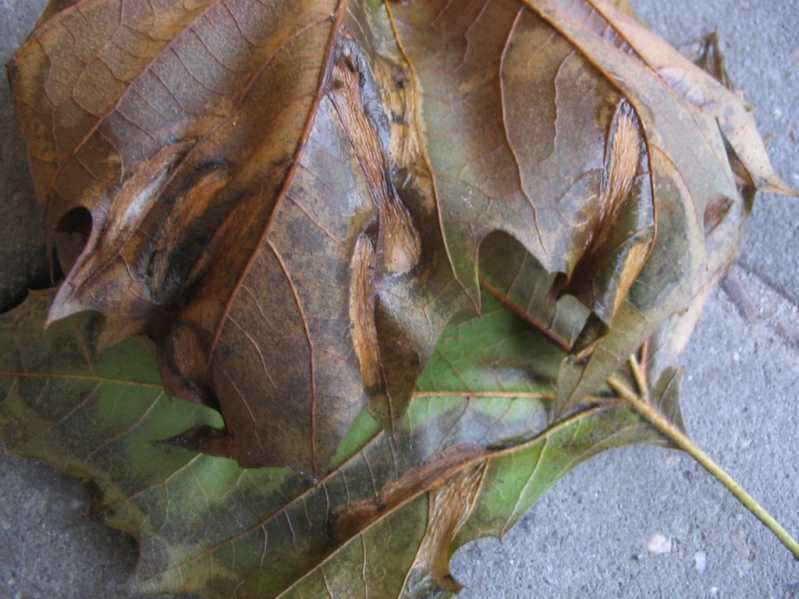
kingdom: Animalia
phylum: Arthropoda
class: Insecta
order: Lepidoptera
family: Gracillariidae
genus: Phyllonorycter
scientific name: Phyllonorycter platani
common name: London midget
